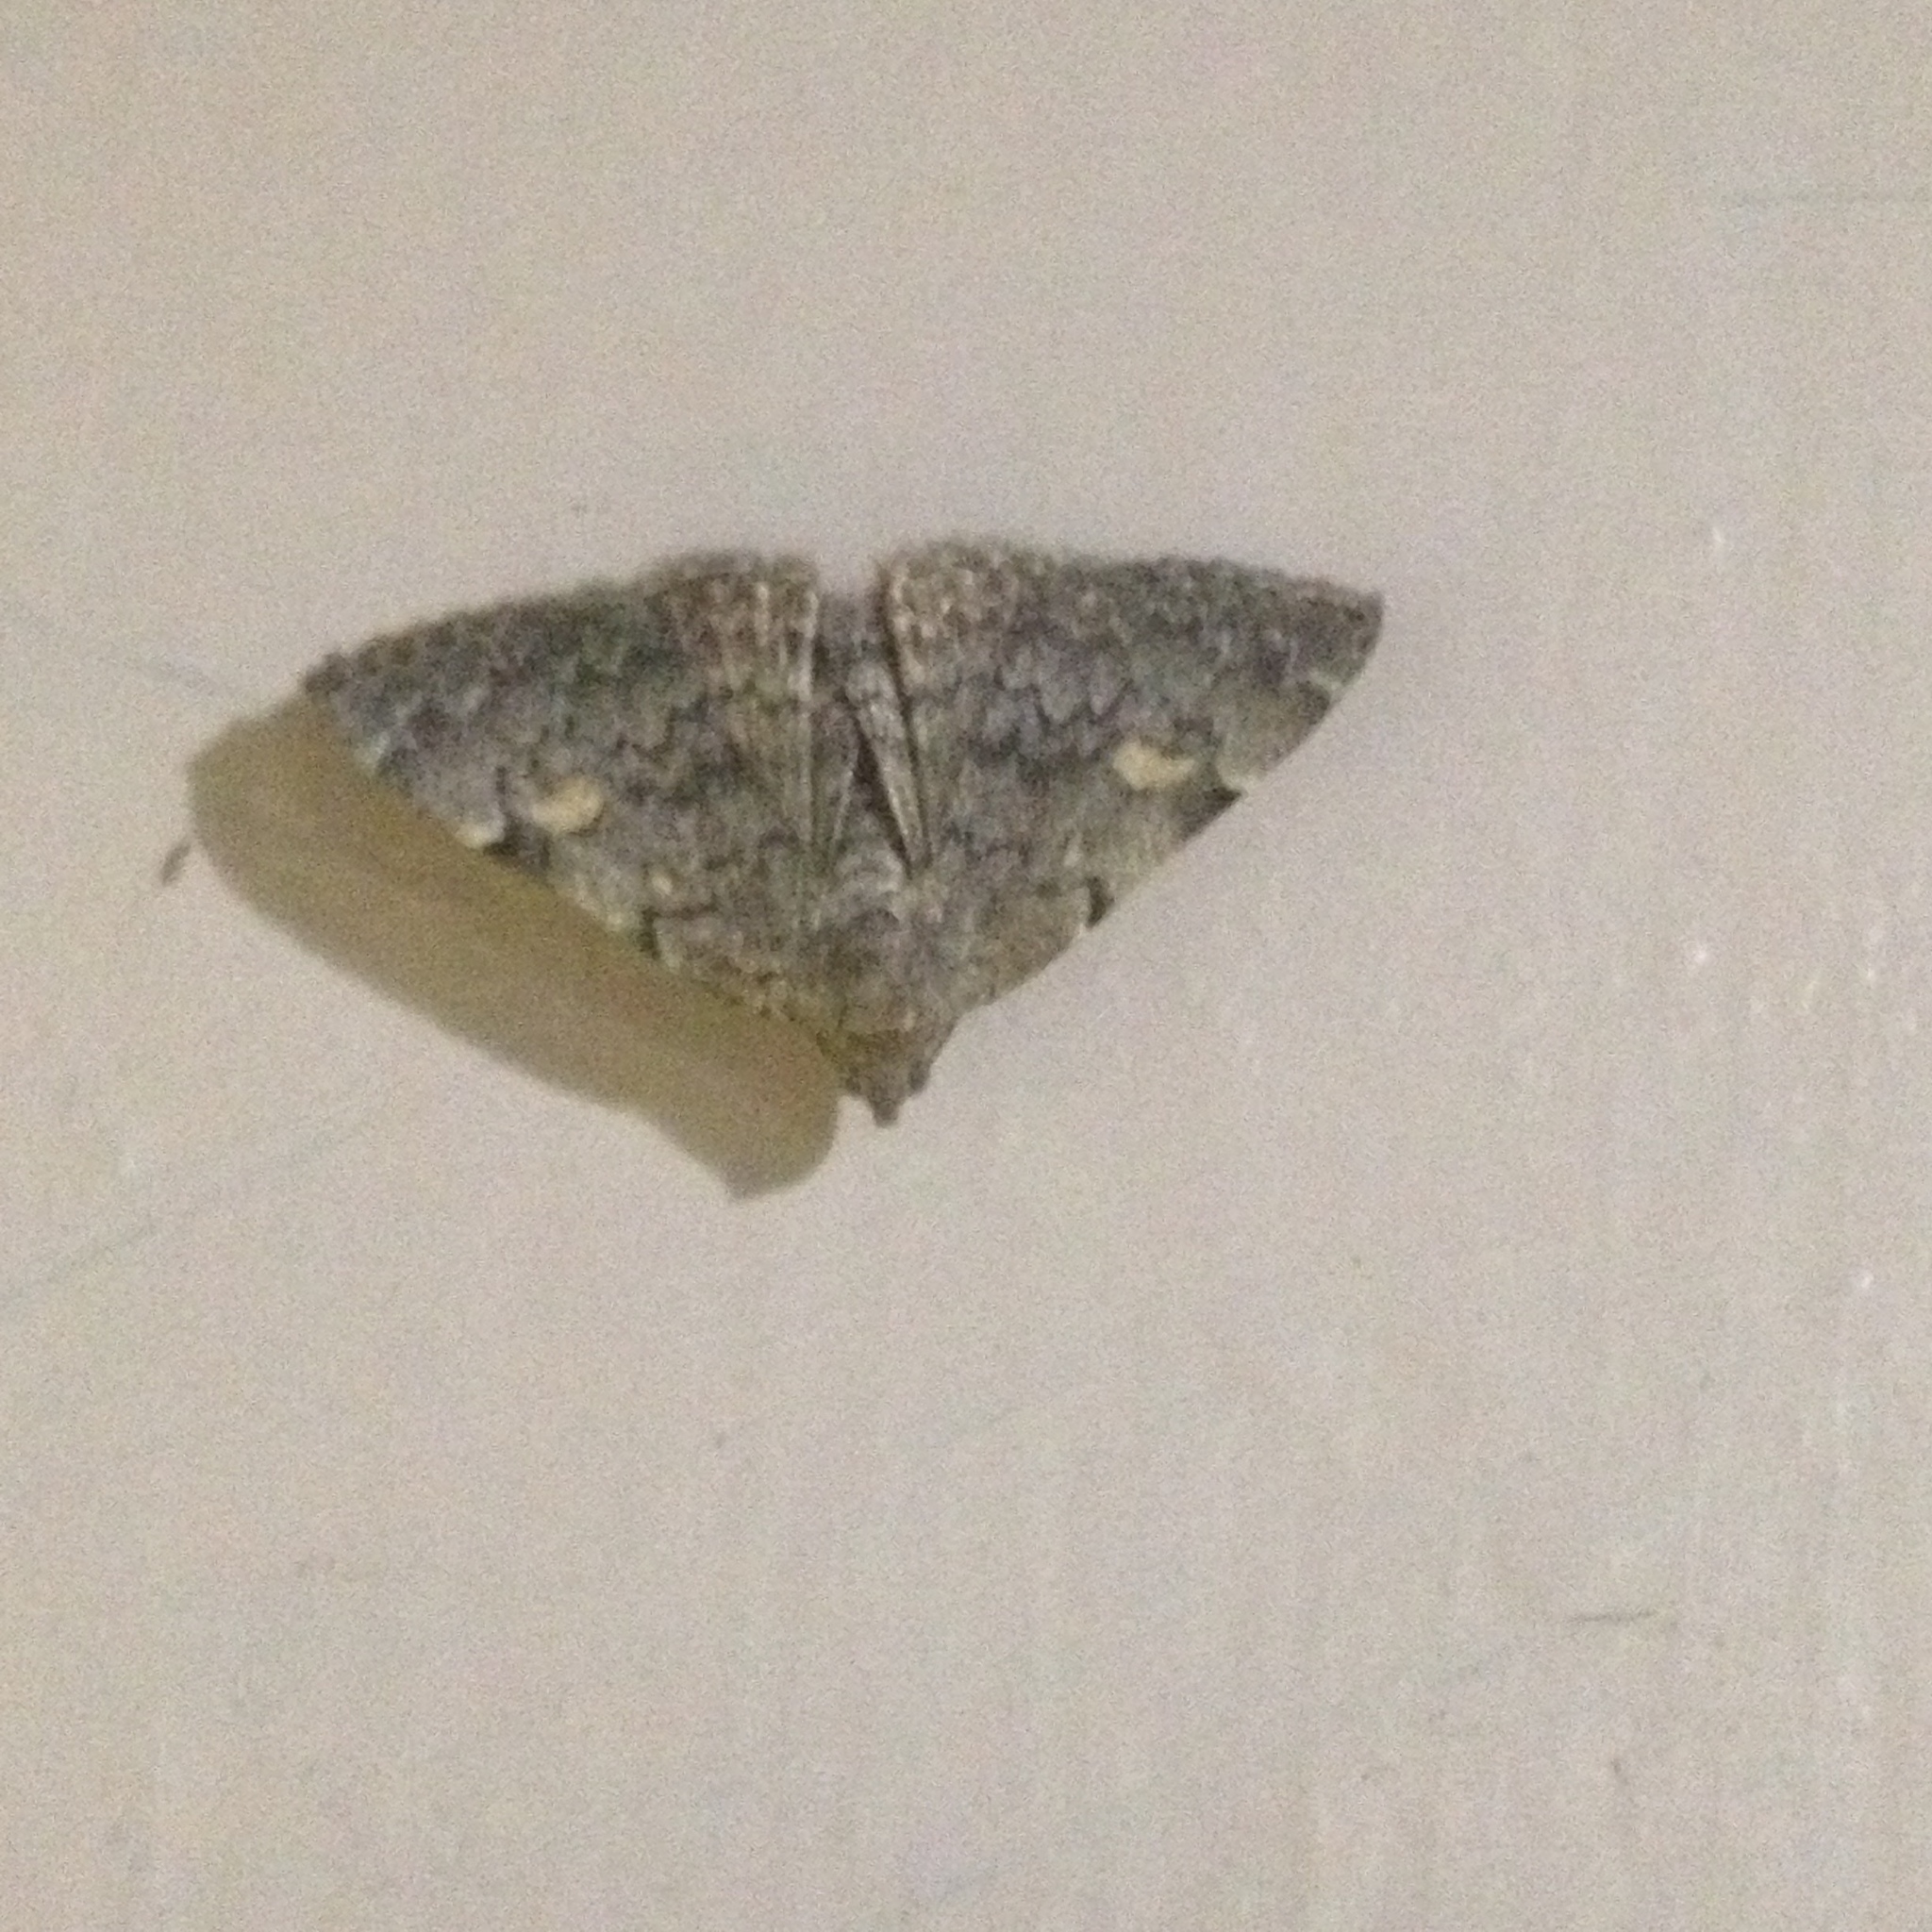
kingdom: Animalia
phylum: Arthropoda
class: Insecta
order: Lepidoptera
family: Erebidae
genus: Idia
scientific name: Idia aemula
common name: Common idia moth
